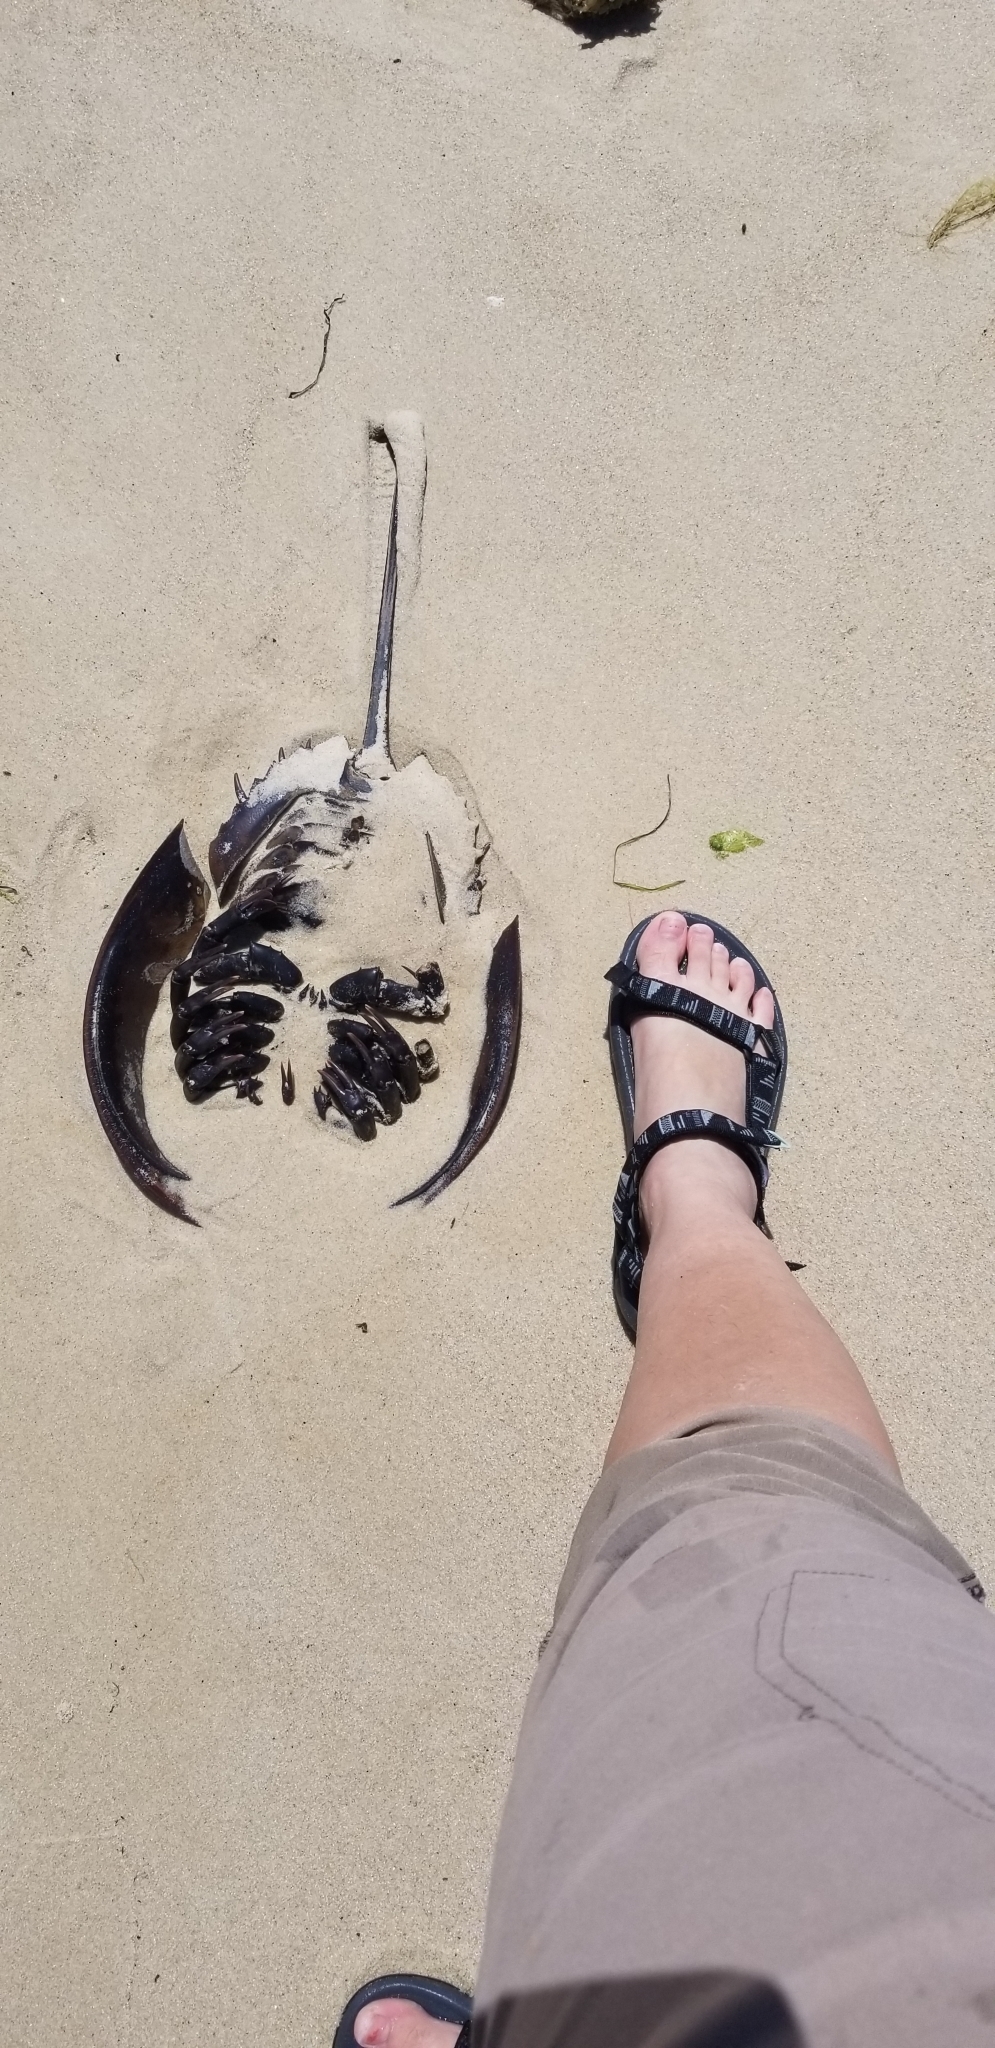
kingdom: Animalia
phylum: Arthropoda
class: Merostomata
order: Xiphosurida
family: Limulidae
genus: Limulus
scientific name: Limulus polyphemus
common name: Horseshoe crab
